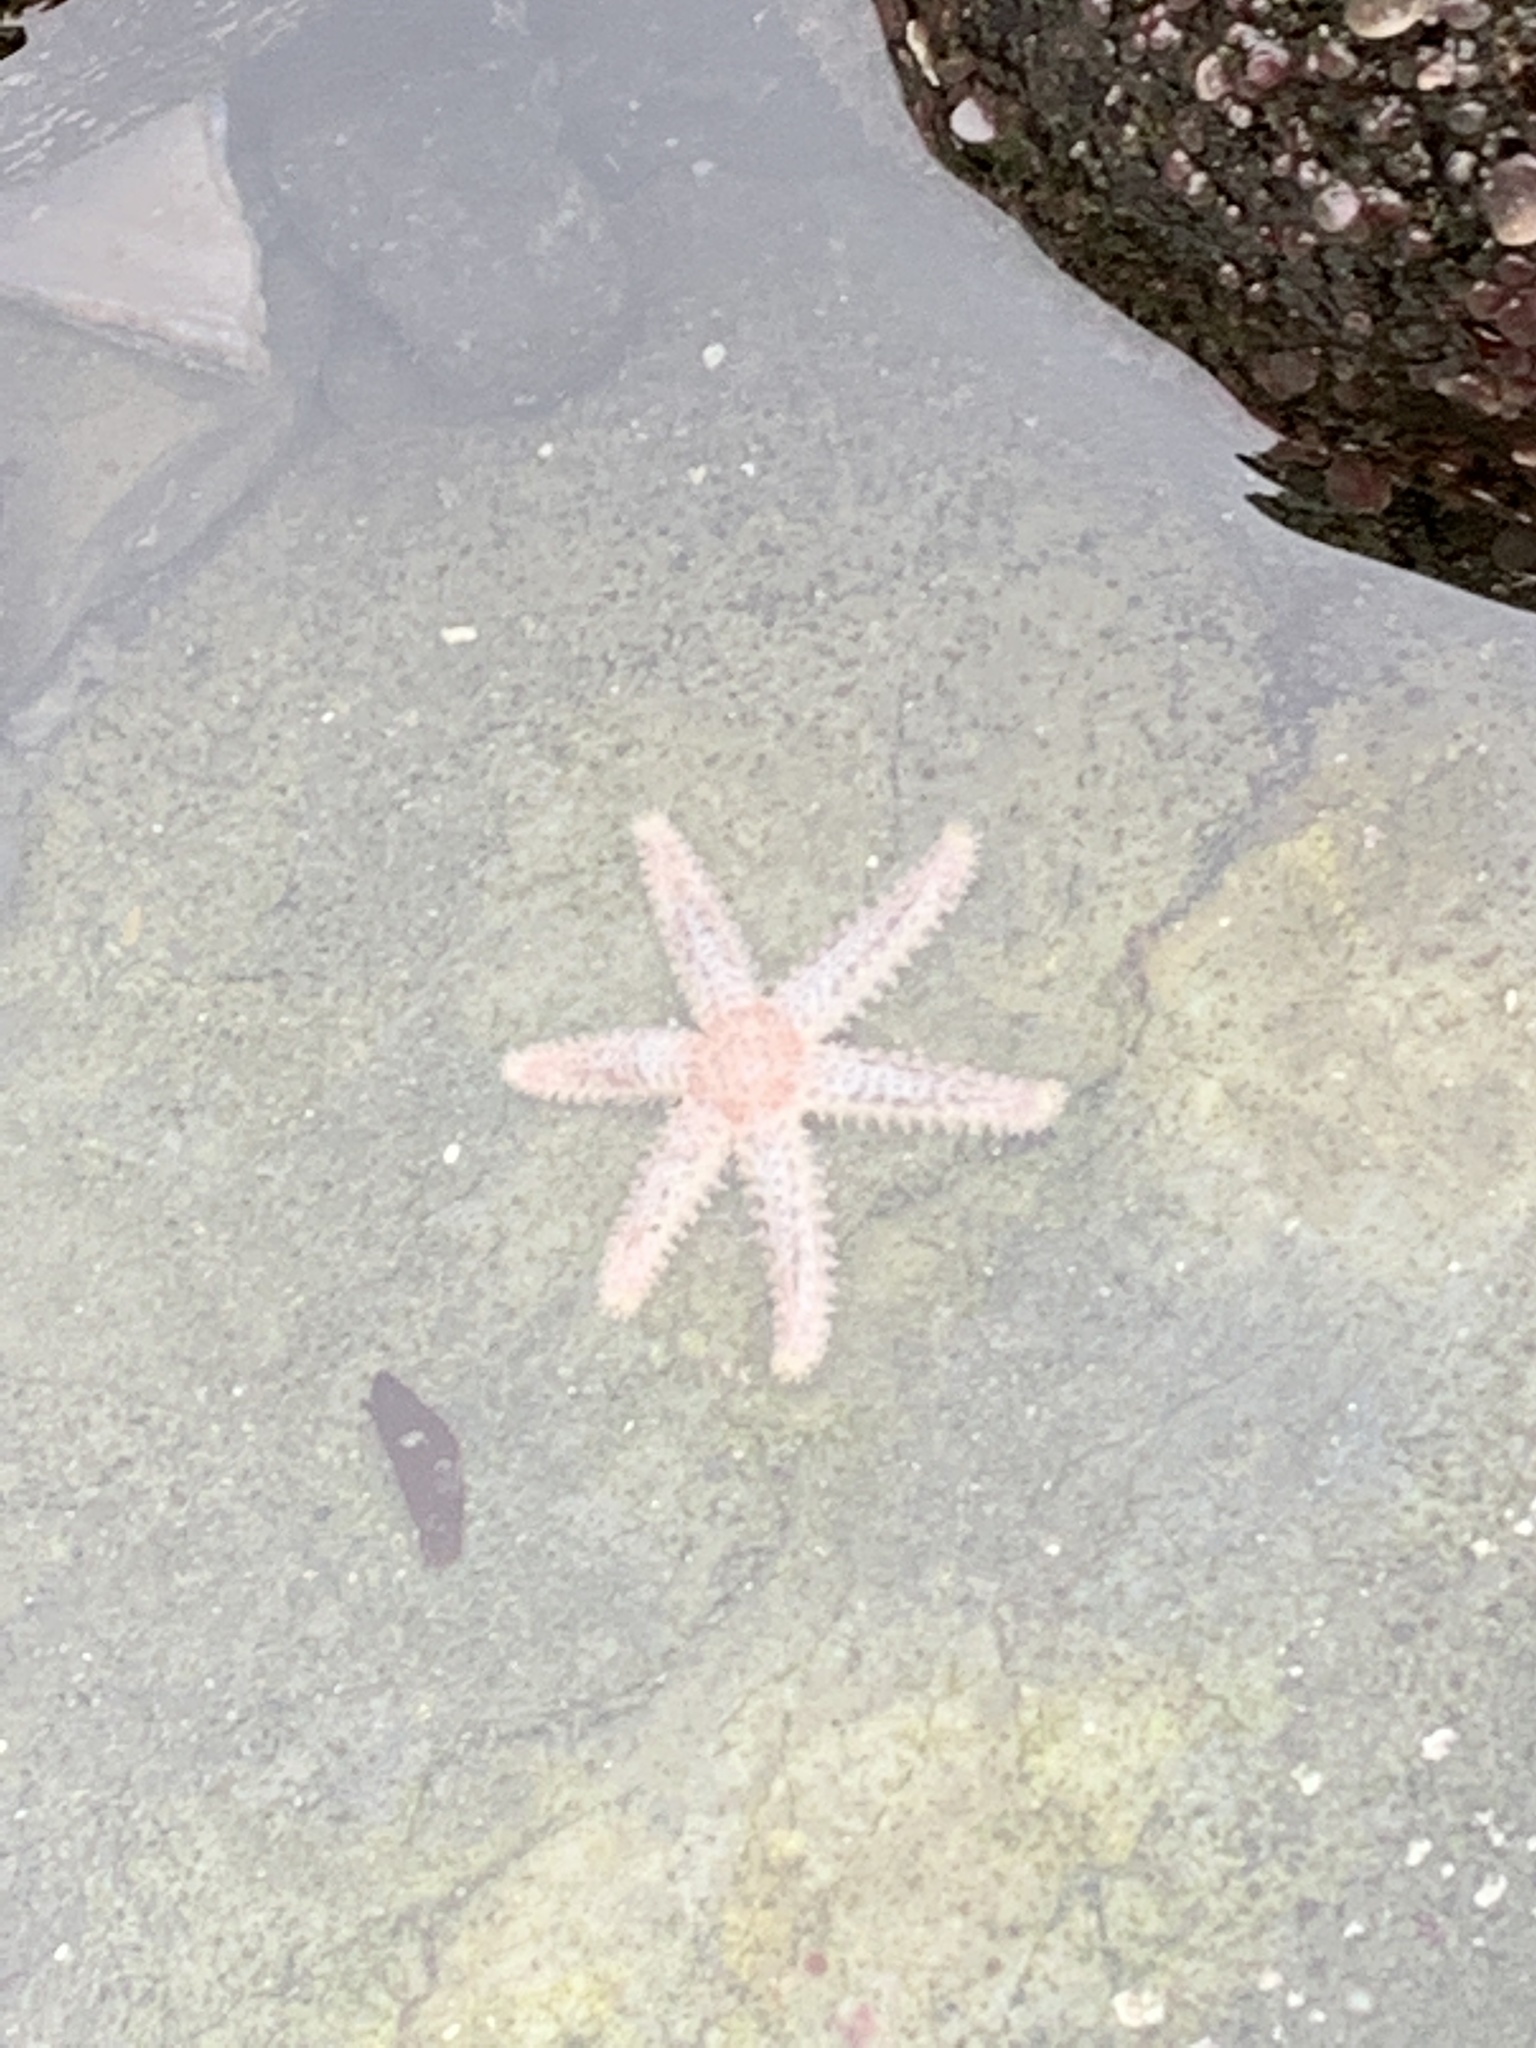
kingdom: Animalia
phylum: Echinodermata
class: Asteroidea
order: Forcipulatida
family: Asteriidae
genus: Leptasterias
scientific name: Leptasterias hexactis
